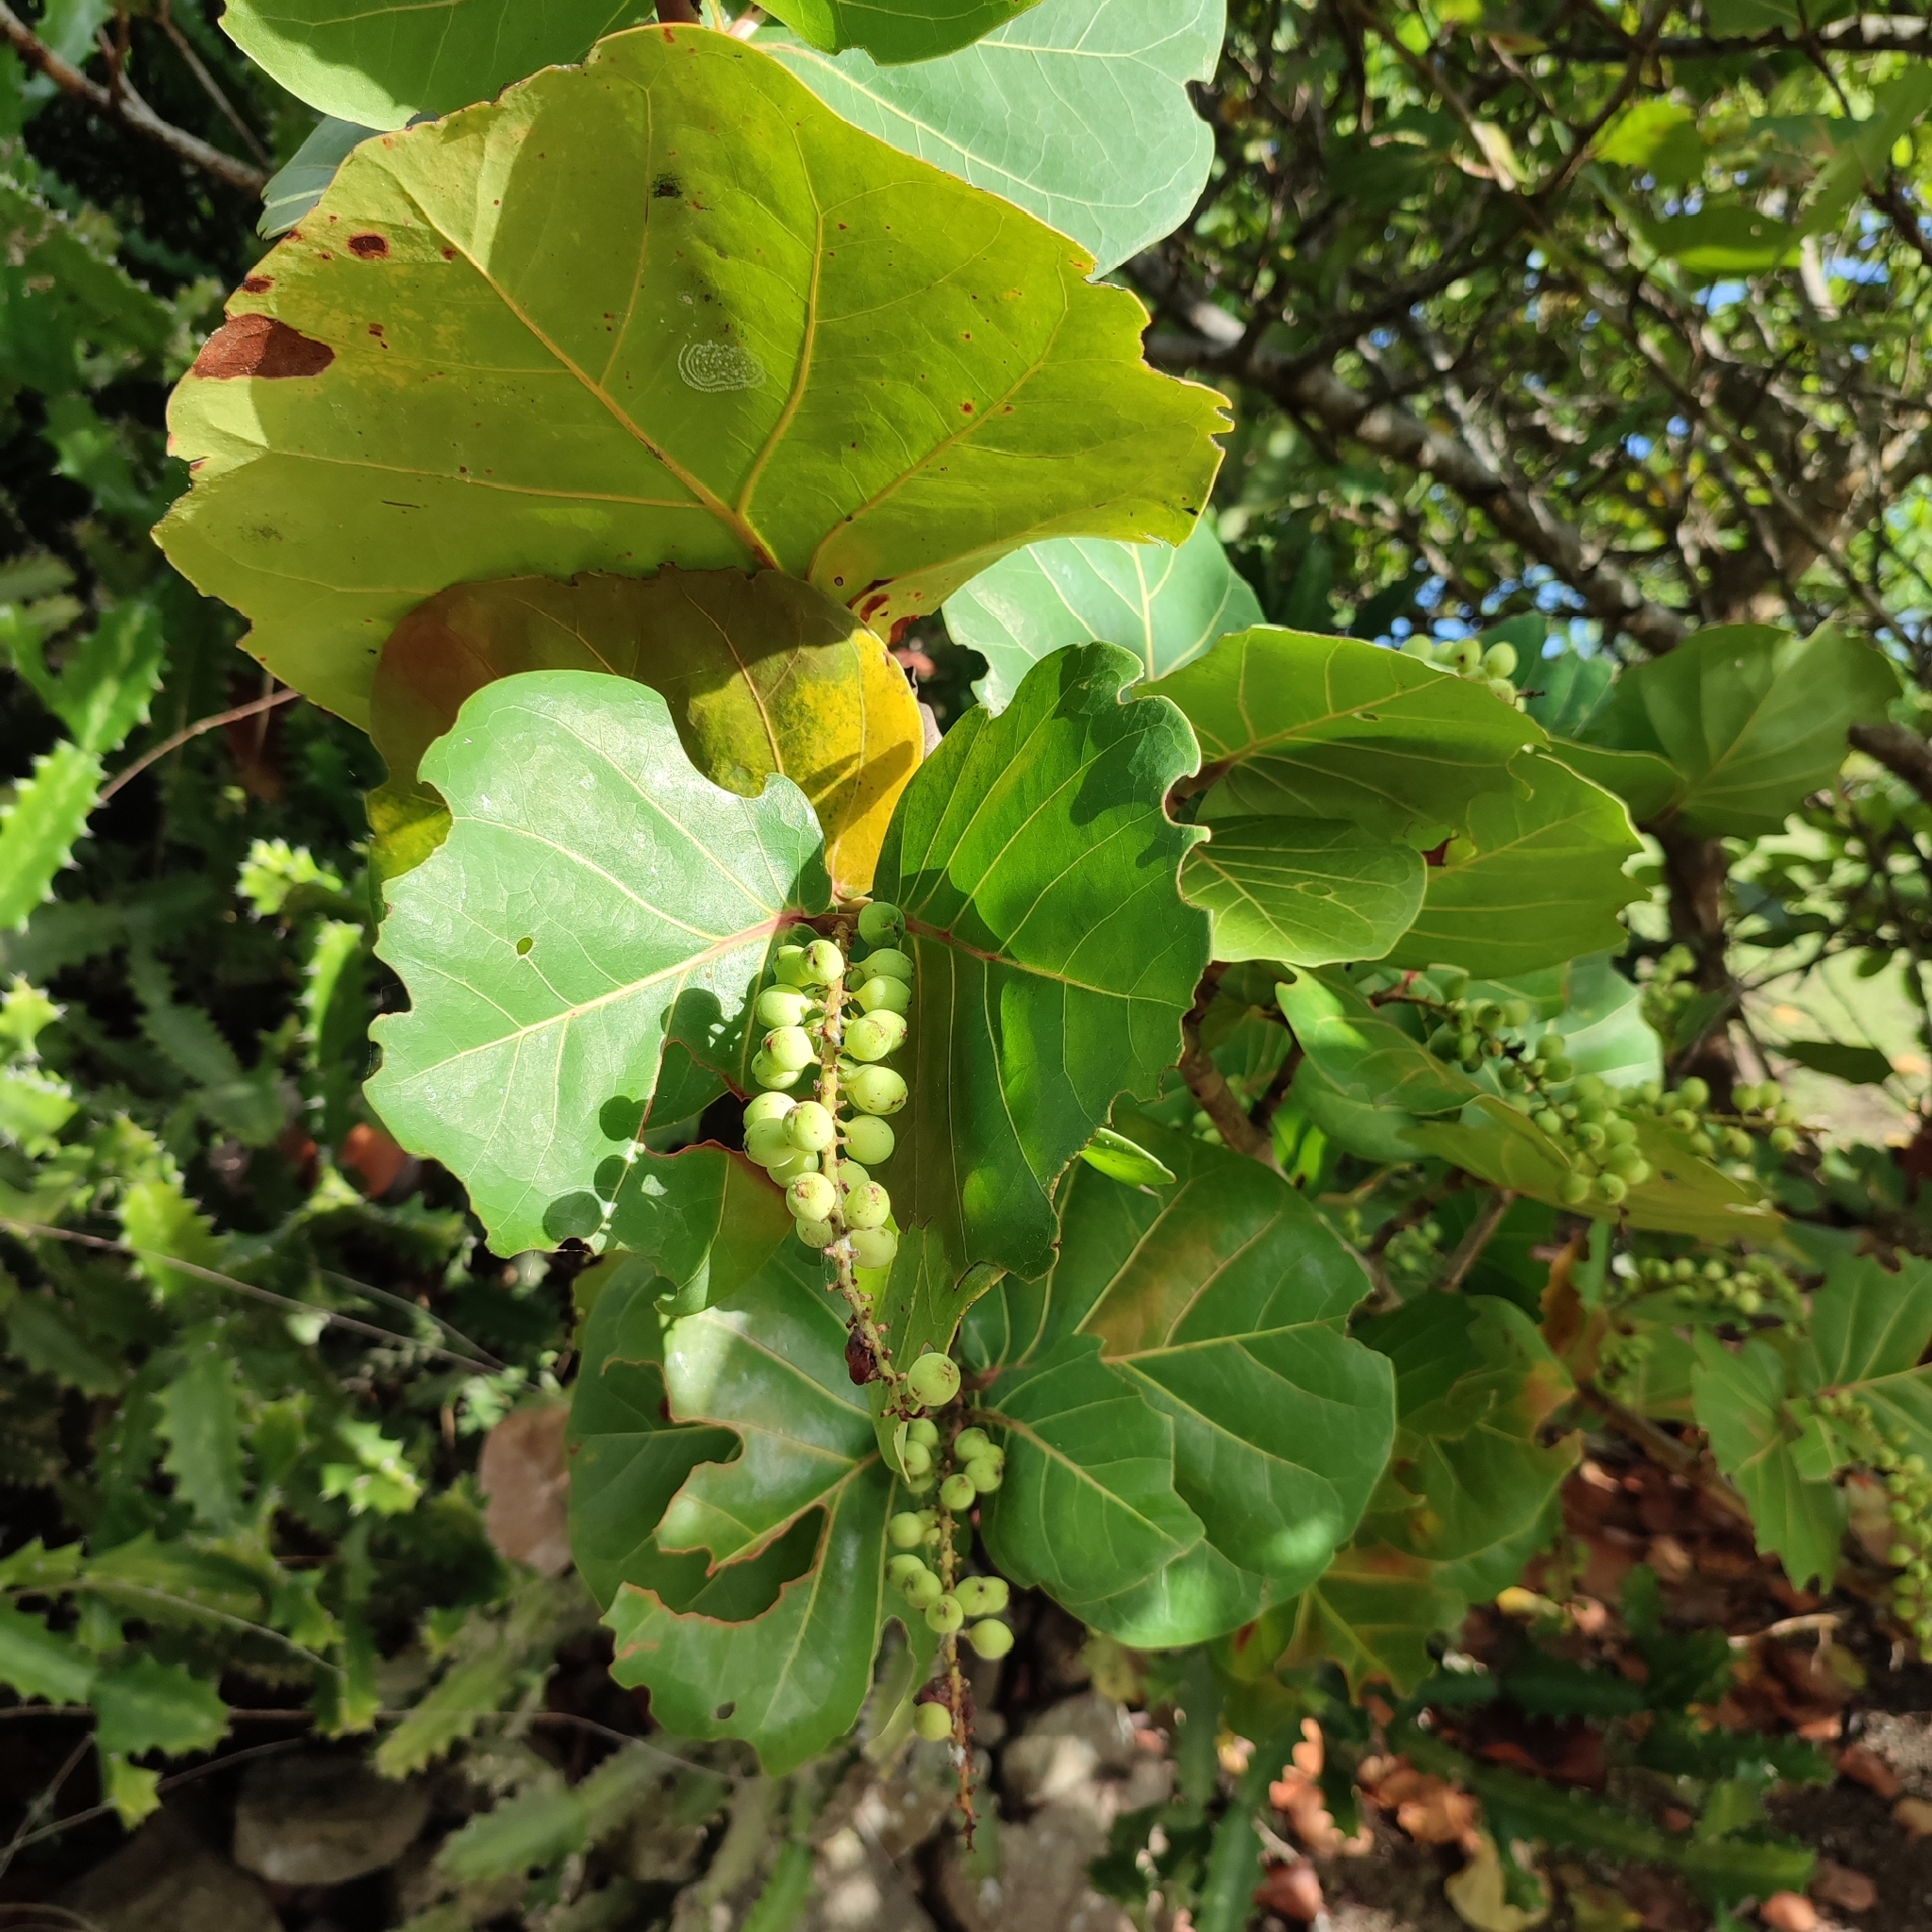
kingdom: Plantae
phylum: Tracheophyta
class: Magnoliopsida
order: Caryophyllales
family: Polygonaceae
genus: Coccoloba
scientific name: Coccoloba uvifera
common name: Seagrape
